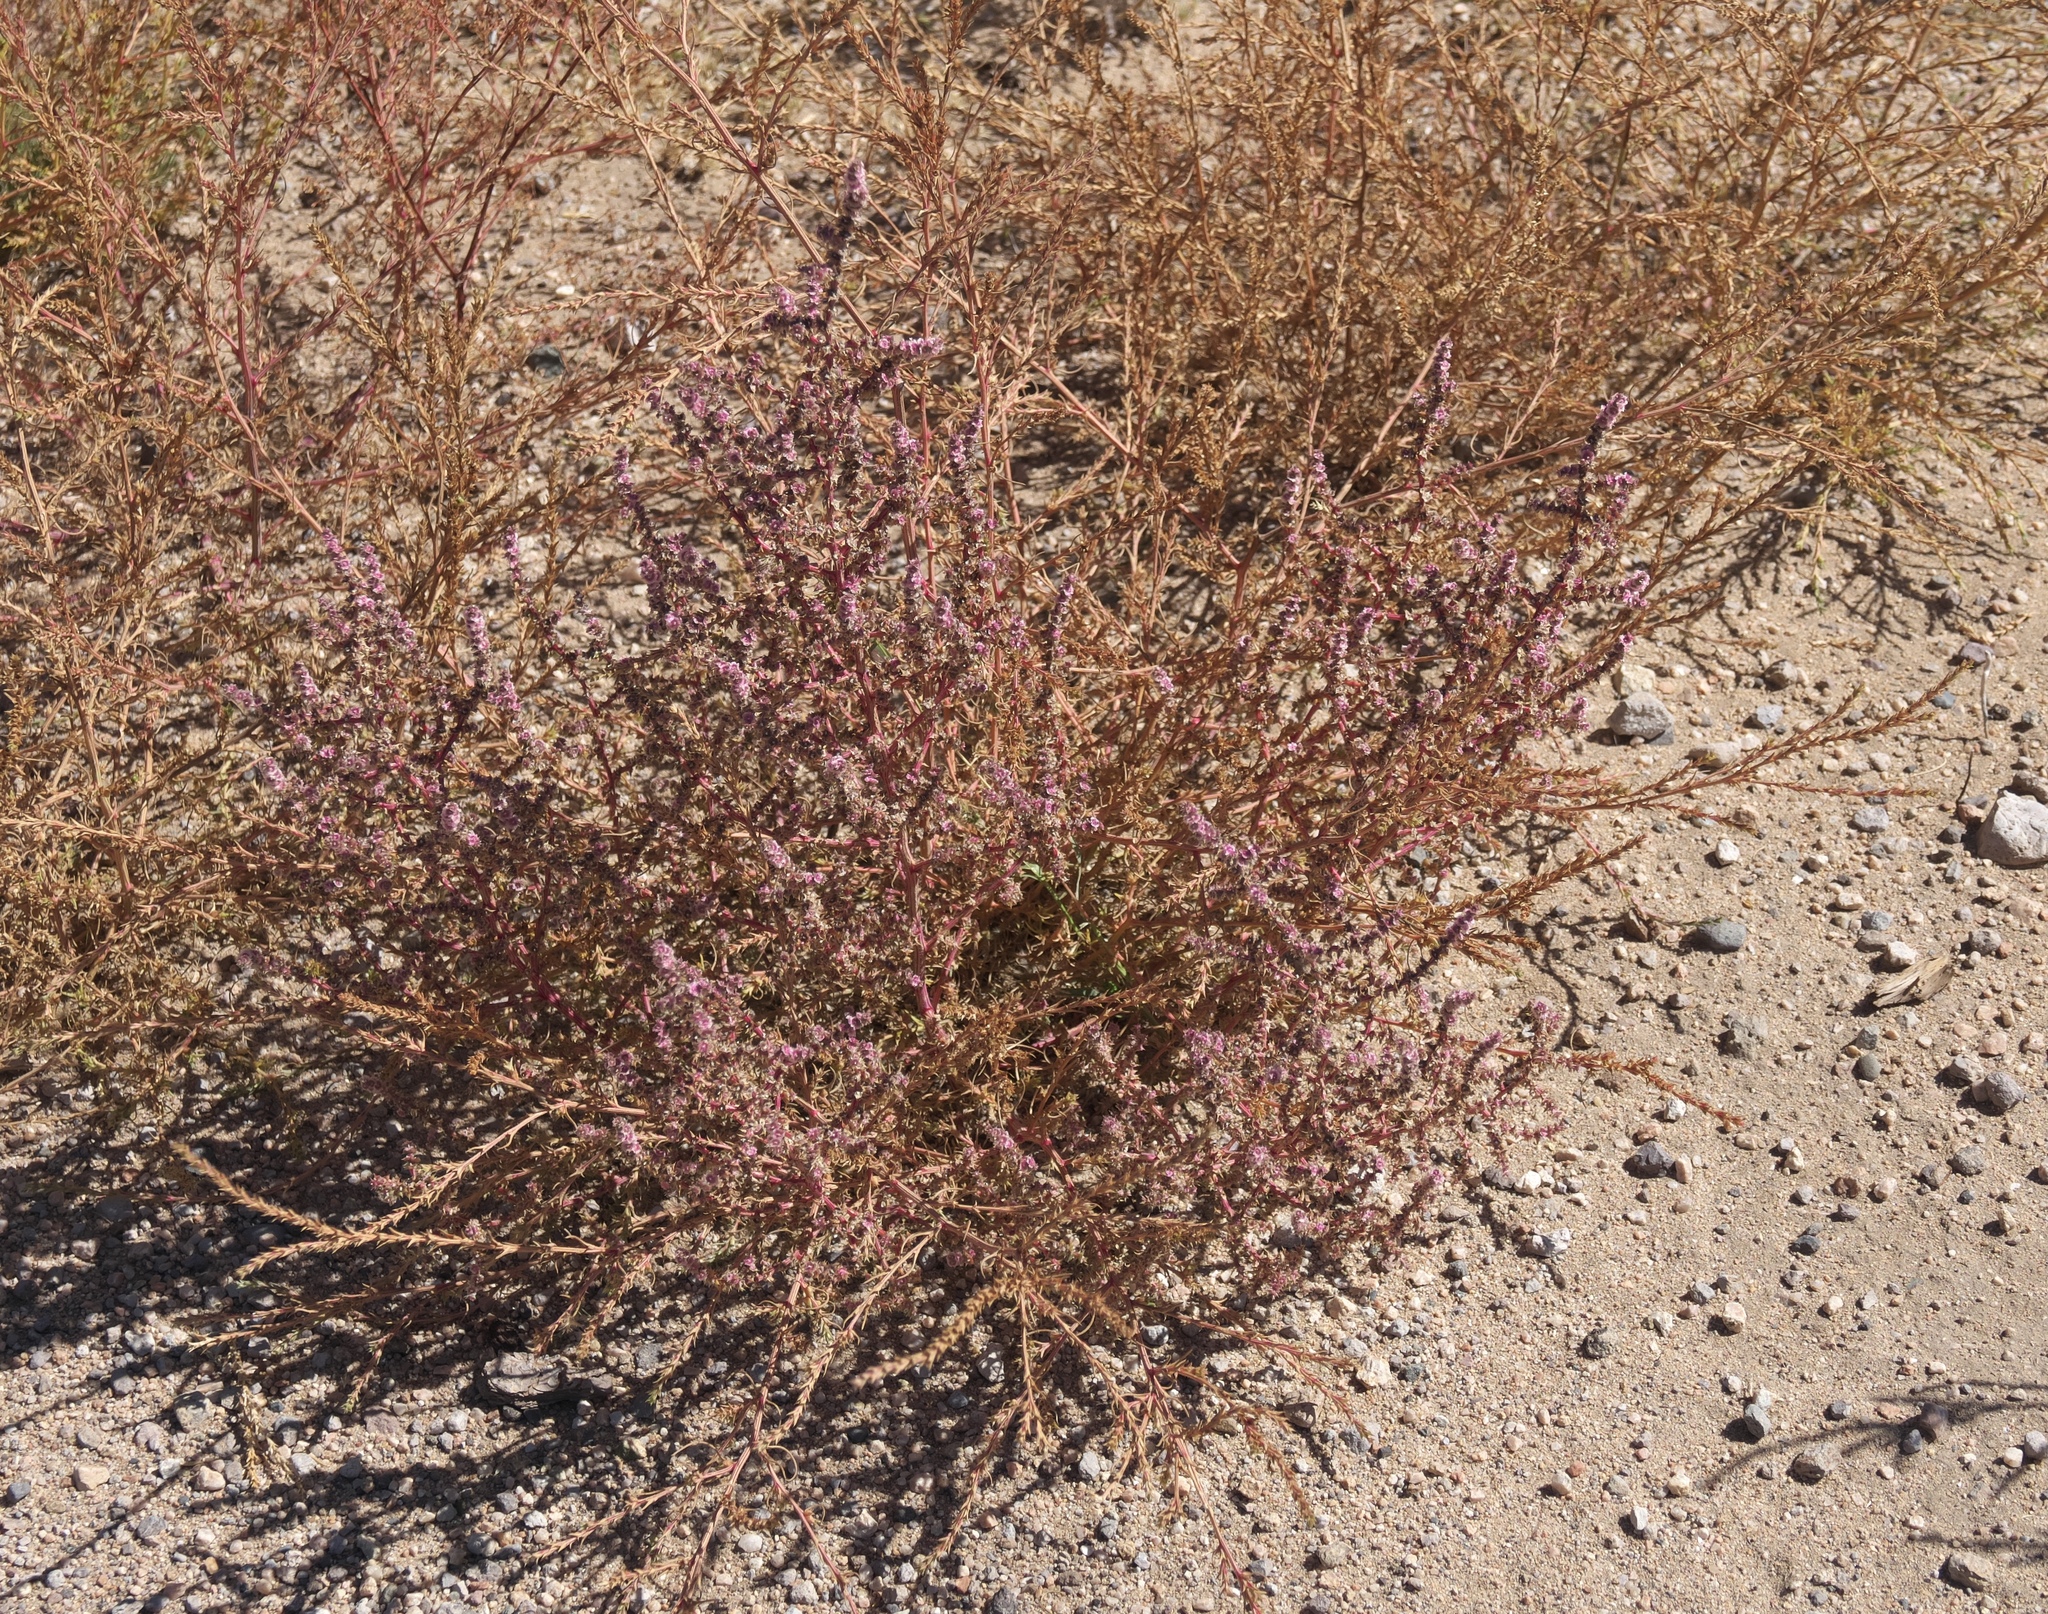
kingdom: Plantae
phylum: Tracheophyta
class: Magnoliopsida
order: Caryophyllales
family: Amaranthaceae
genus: Salsola
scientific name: Salsola tragus
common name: Prickly russian thistle
